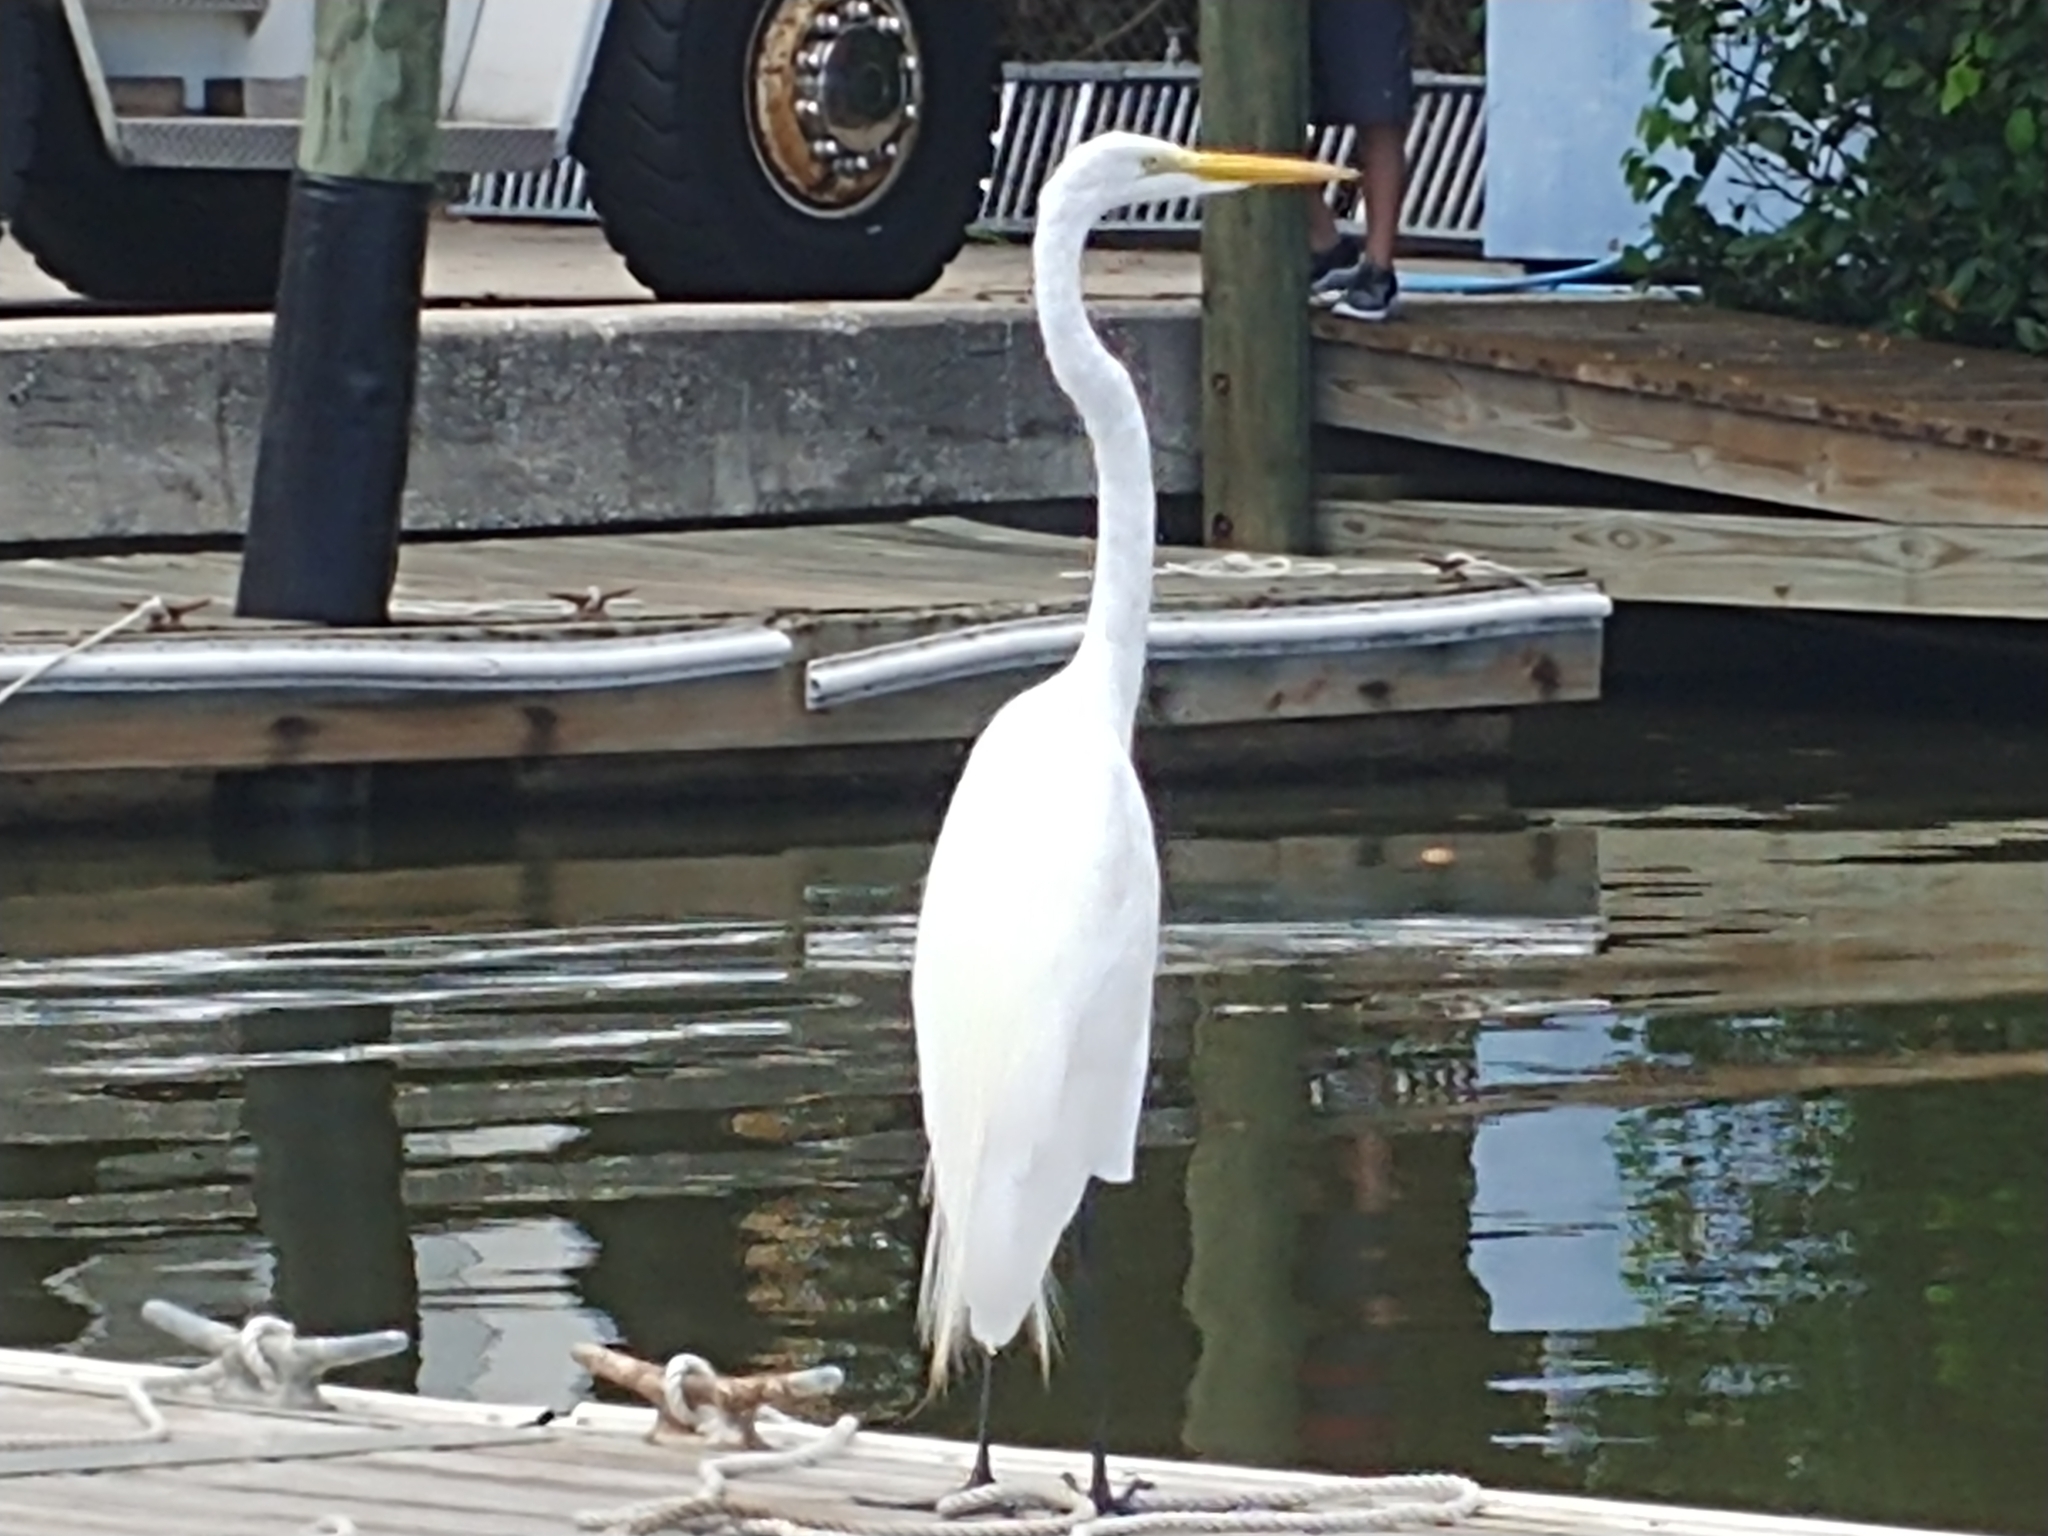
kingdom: Animalia
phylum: Chordata
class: Aves
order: Pelecaniformes
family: Ardeidae
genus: Ardea
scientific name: Ardea alba
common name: Great egret
